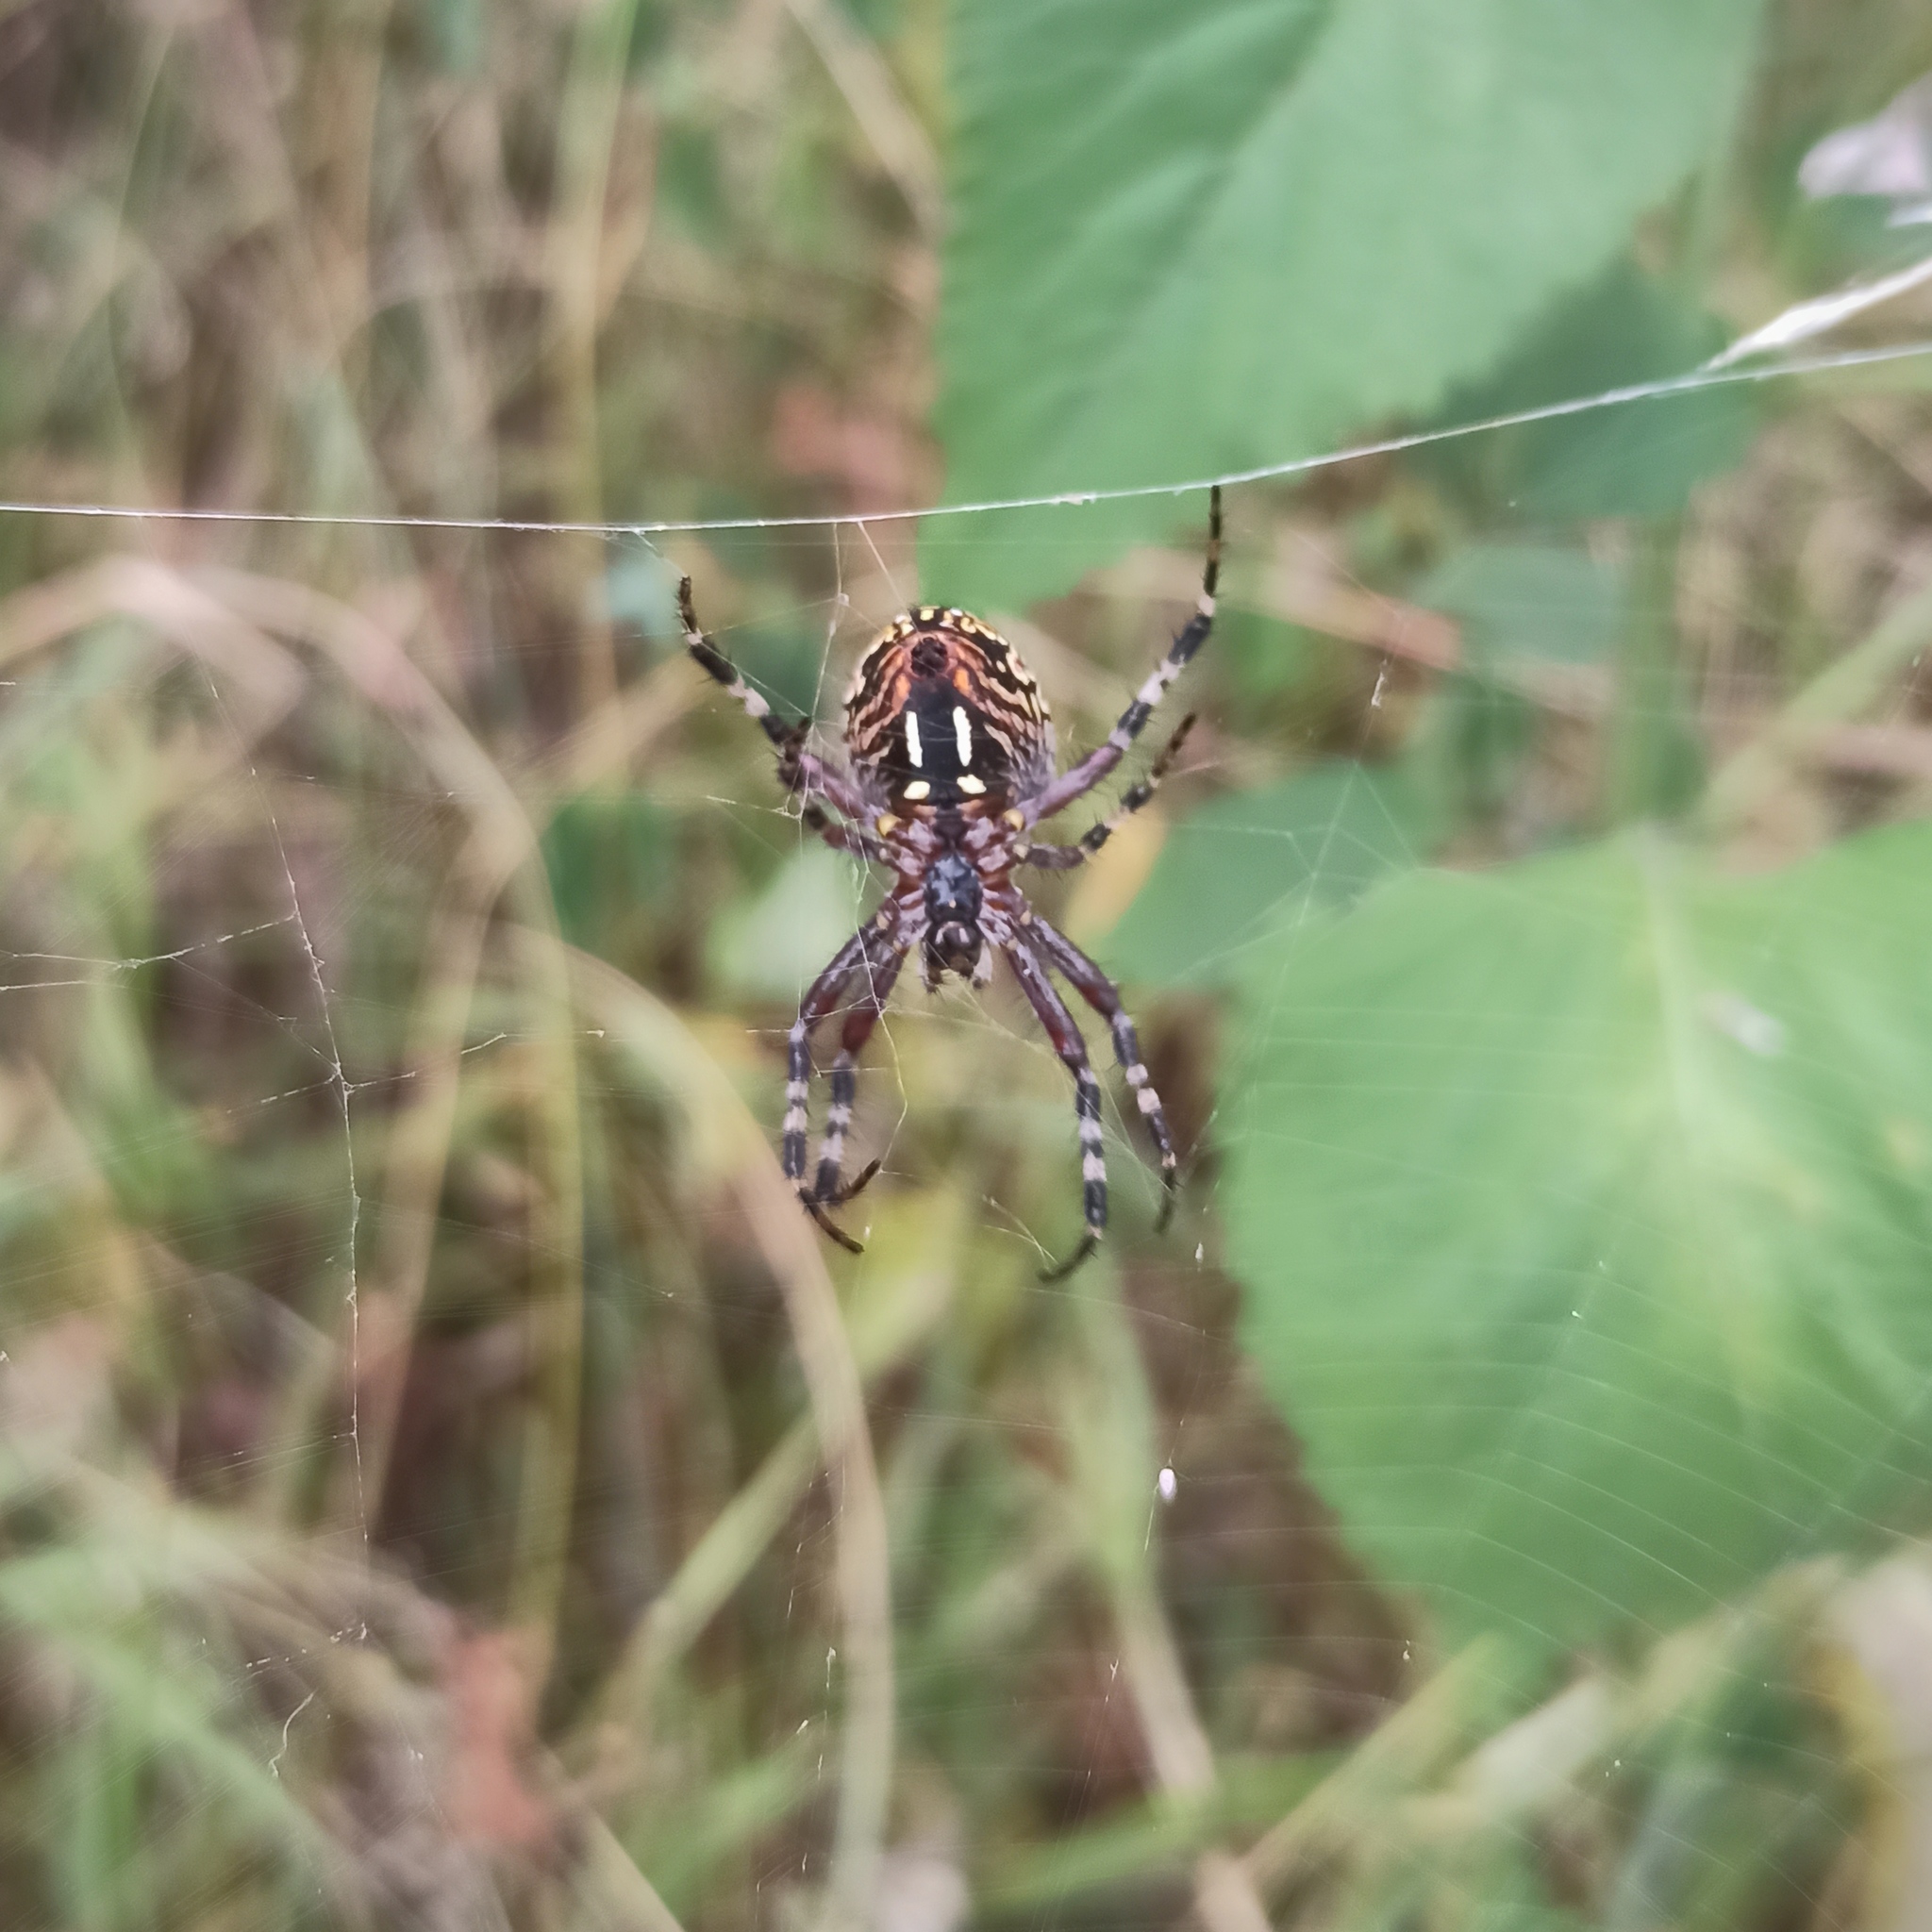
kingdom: Animalia
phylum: Arthropoda
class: Arachnida
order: Araneae
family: Araneidae
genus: Neoscona
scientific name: Neoscona oaxacensis
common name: Orb weavers
